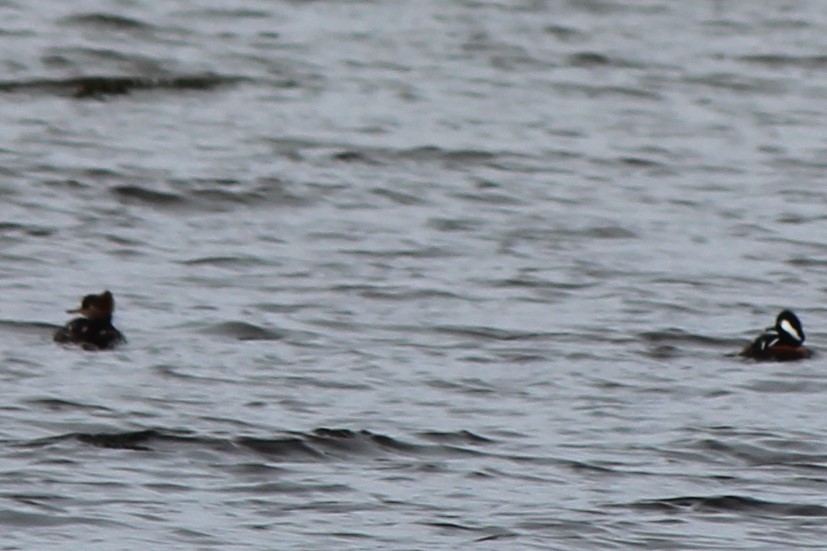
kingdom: Animalia
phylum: Chordata
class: Aves
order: Anseriformes
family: Anatidae
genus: Lophodytes
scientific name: Lophodytes cucullatus
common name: Hooded merganser
